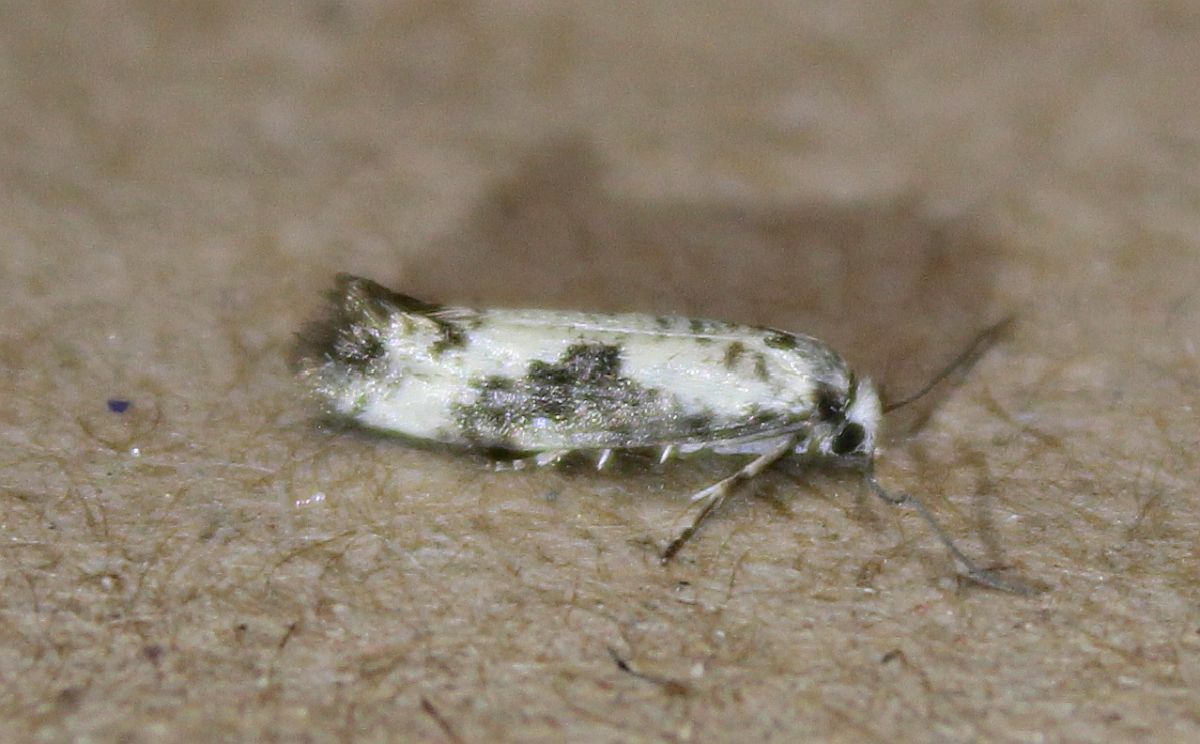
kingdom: Animalia
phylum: Arthropoda
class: Insecta
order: Lepidoptera
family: Praydidae
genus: Prays
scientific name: Prays fraxinella
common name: Ash bud moth
